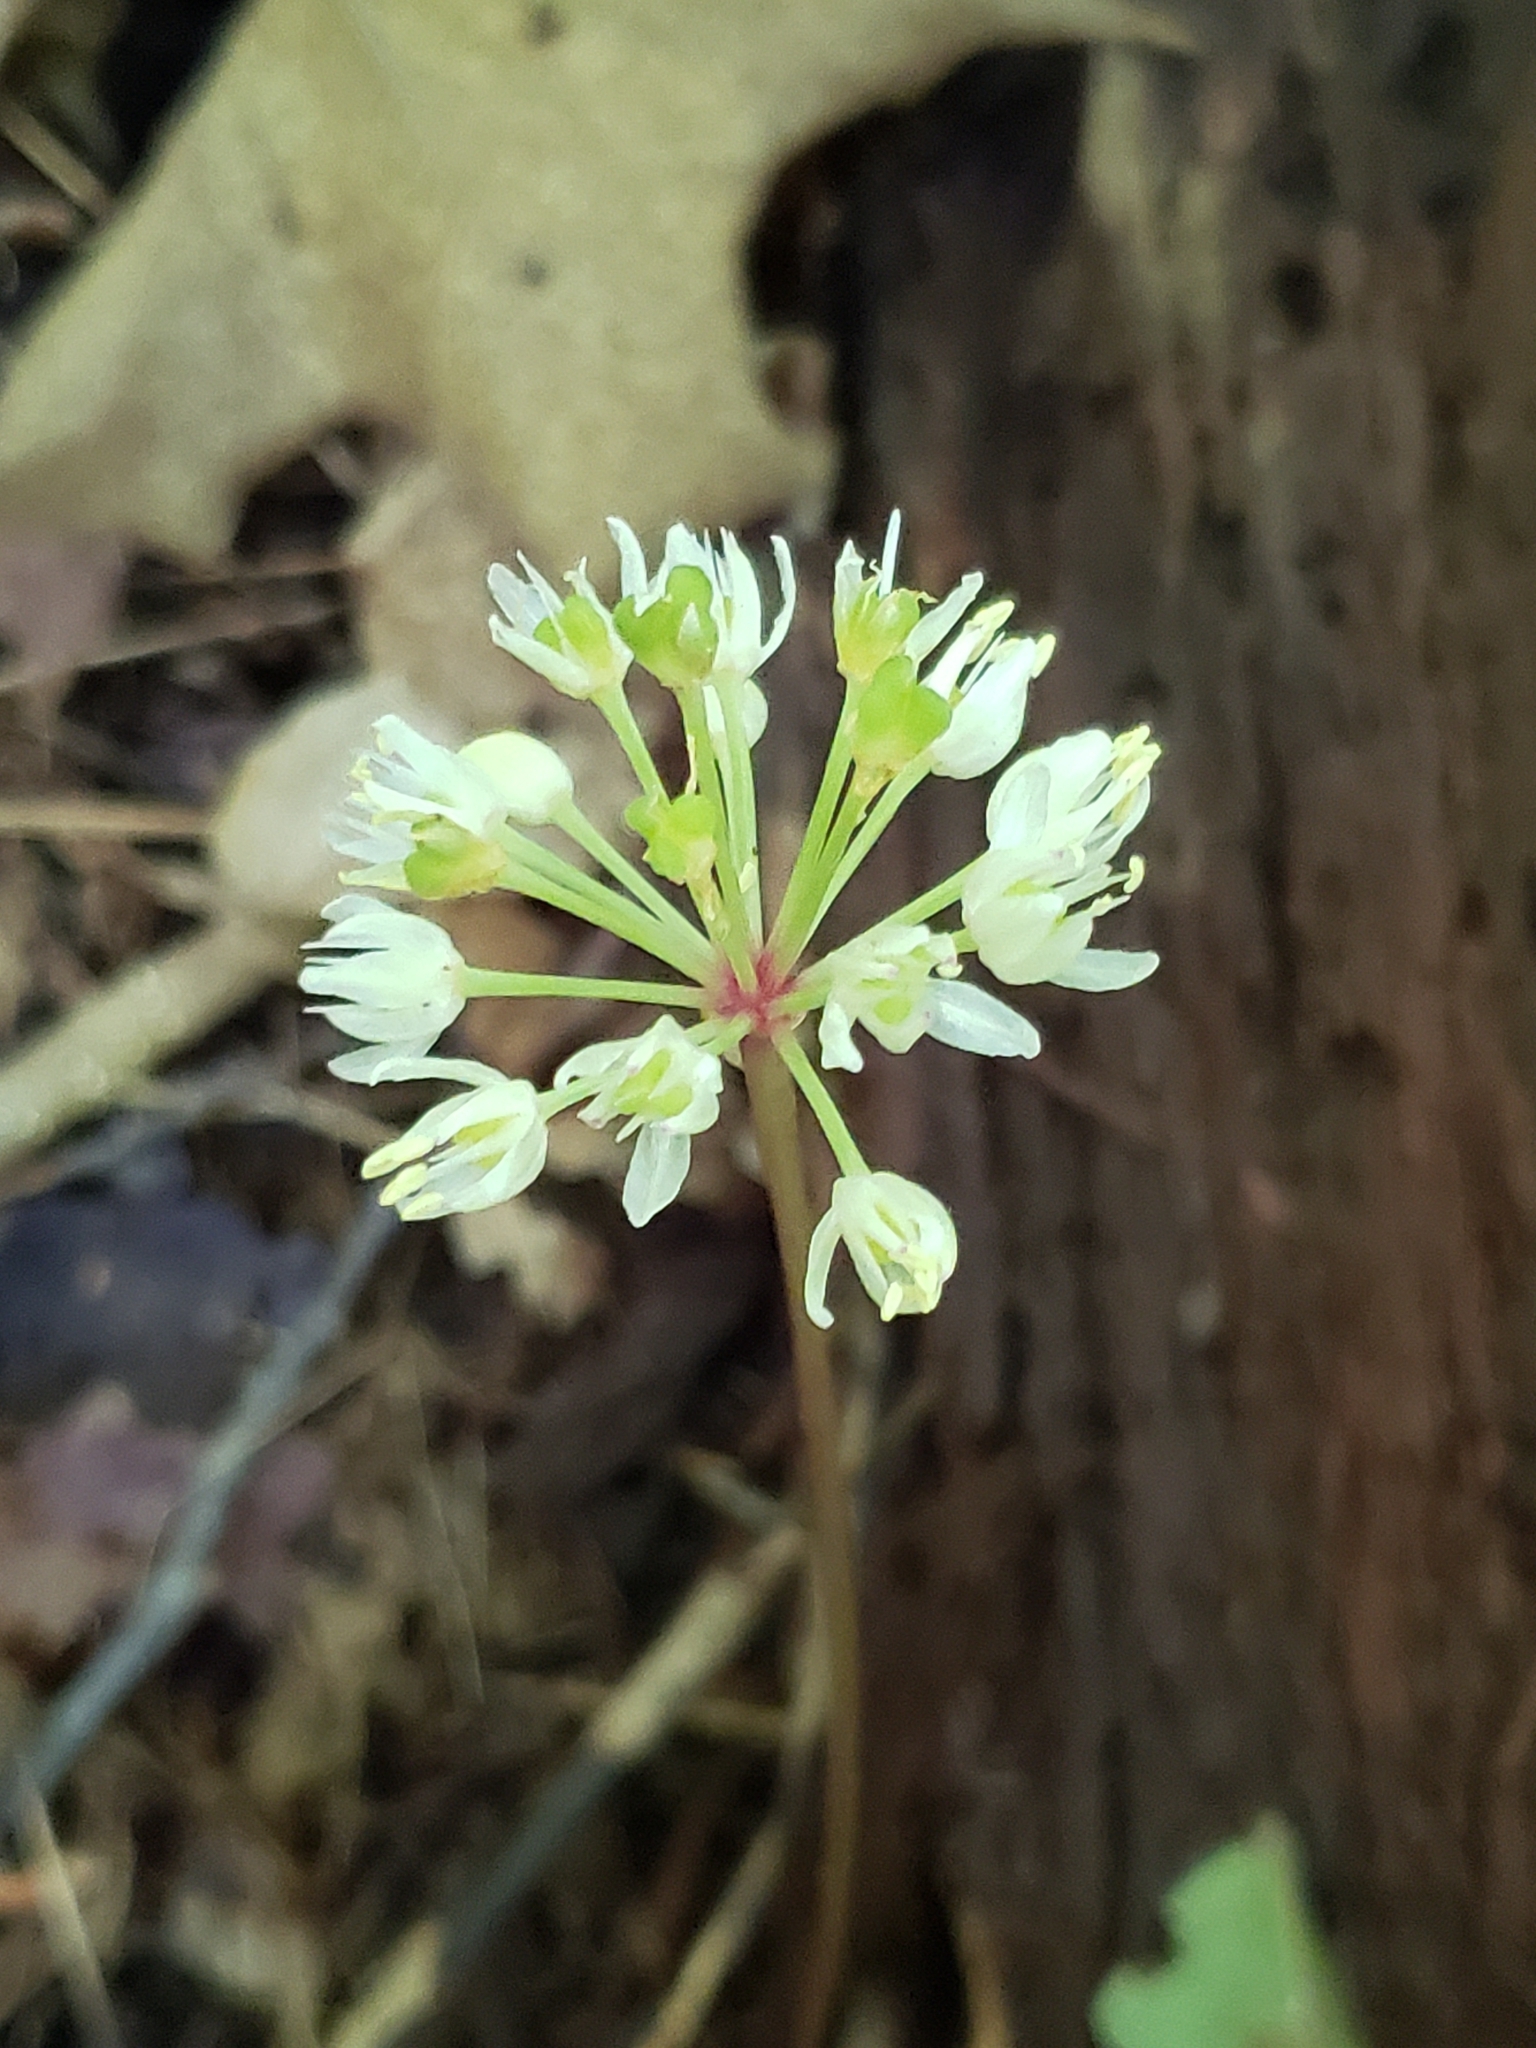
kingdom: Plantae
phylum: Tracheophyta
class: Liliopsida
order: Asparagales
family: Amaryllidaceae
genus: Allium
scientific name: Allium tricoccum
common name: Ramp
